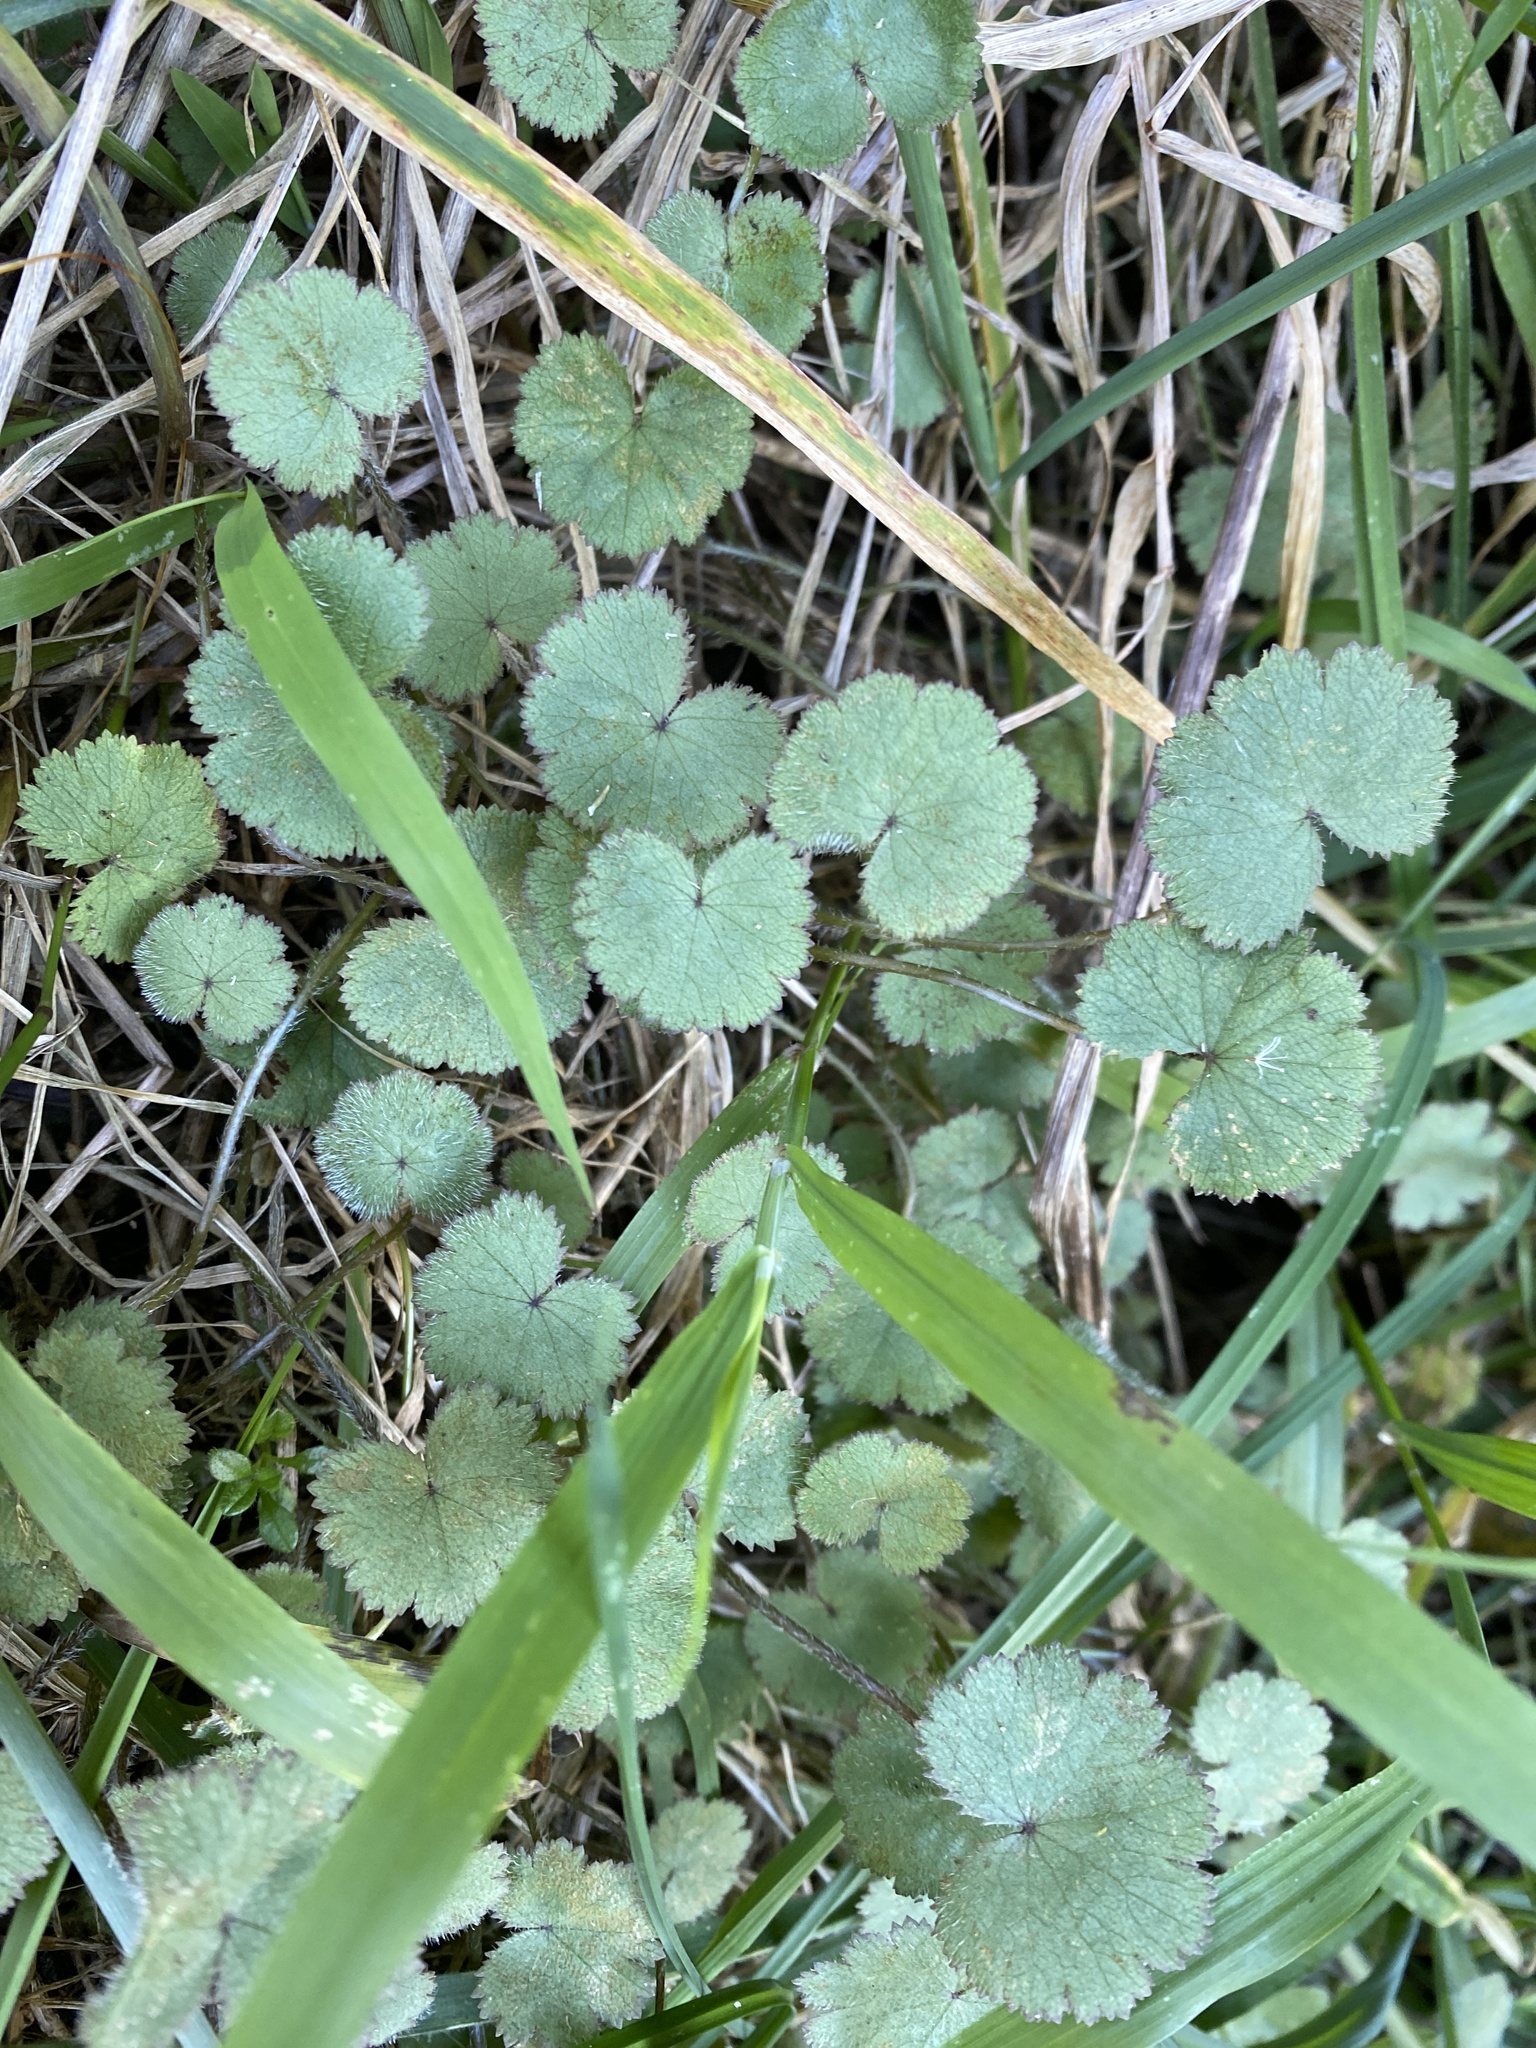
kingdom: Plantae
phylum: Tracheophyta
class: Magnoliopsida
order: Apiales
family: Araliaceae
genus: Hydrocotyle
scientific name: Hydrocotyle moschata
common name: Hairy pennywort
